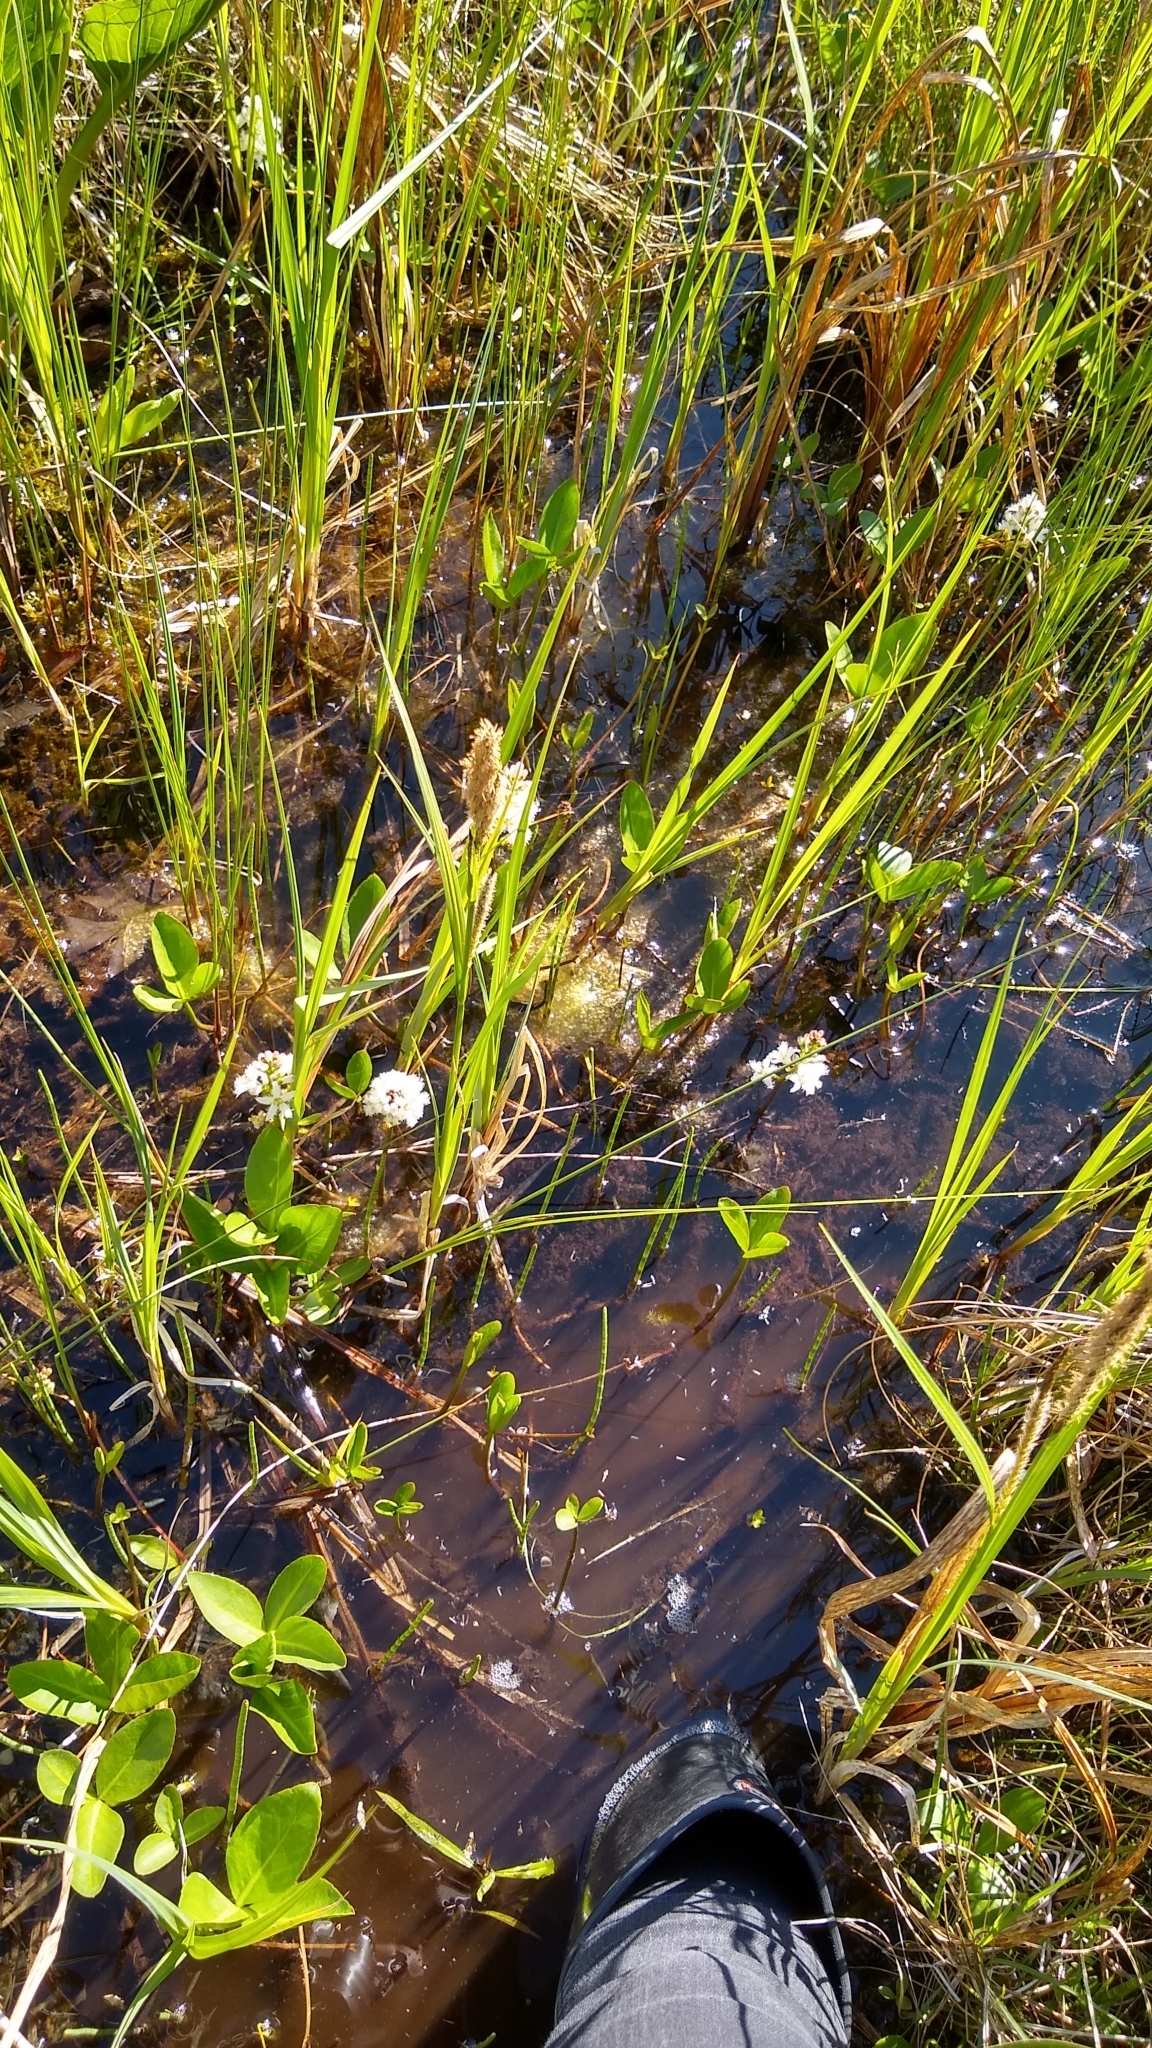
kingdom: Plantae
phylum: Tracheophyta
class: Magnoliopsida
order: Asterales
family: Menyanthaceae
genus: Menyanthes
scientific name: Menyanthes trifoliata
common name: Bogbean
